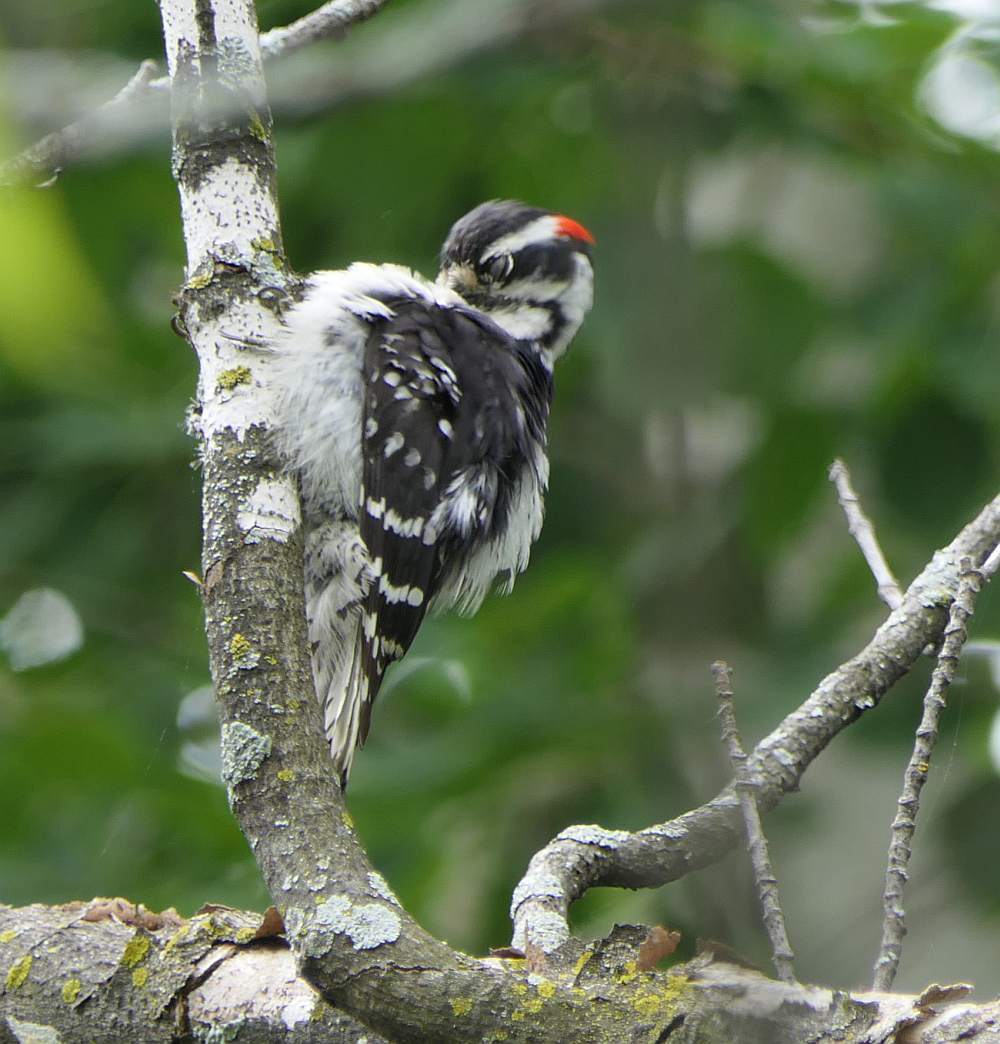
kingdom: Animalia
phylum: Chordata
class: Aves
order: Piciformes
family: Picidae
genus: Dryobates
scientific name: Dryobates pubescens
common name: Downy woodpecker
